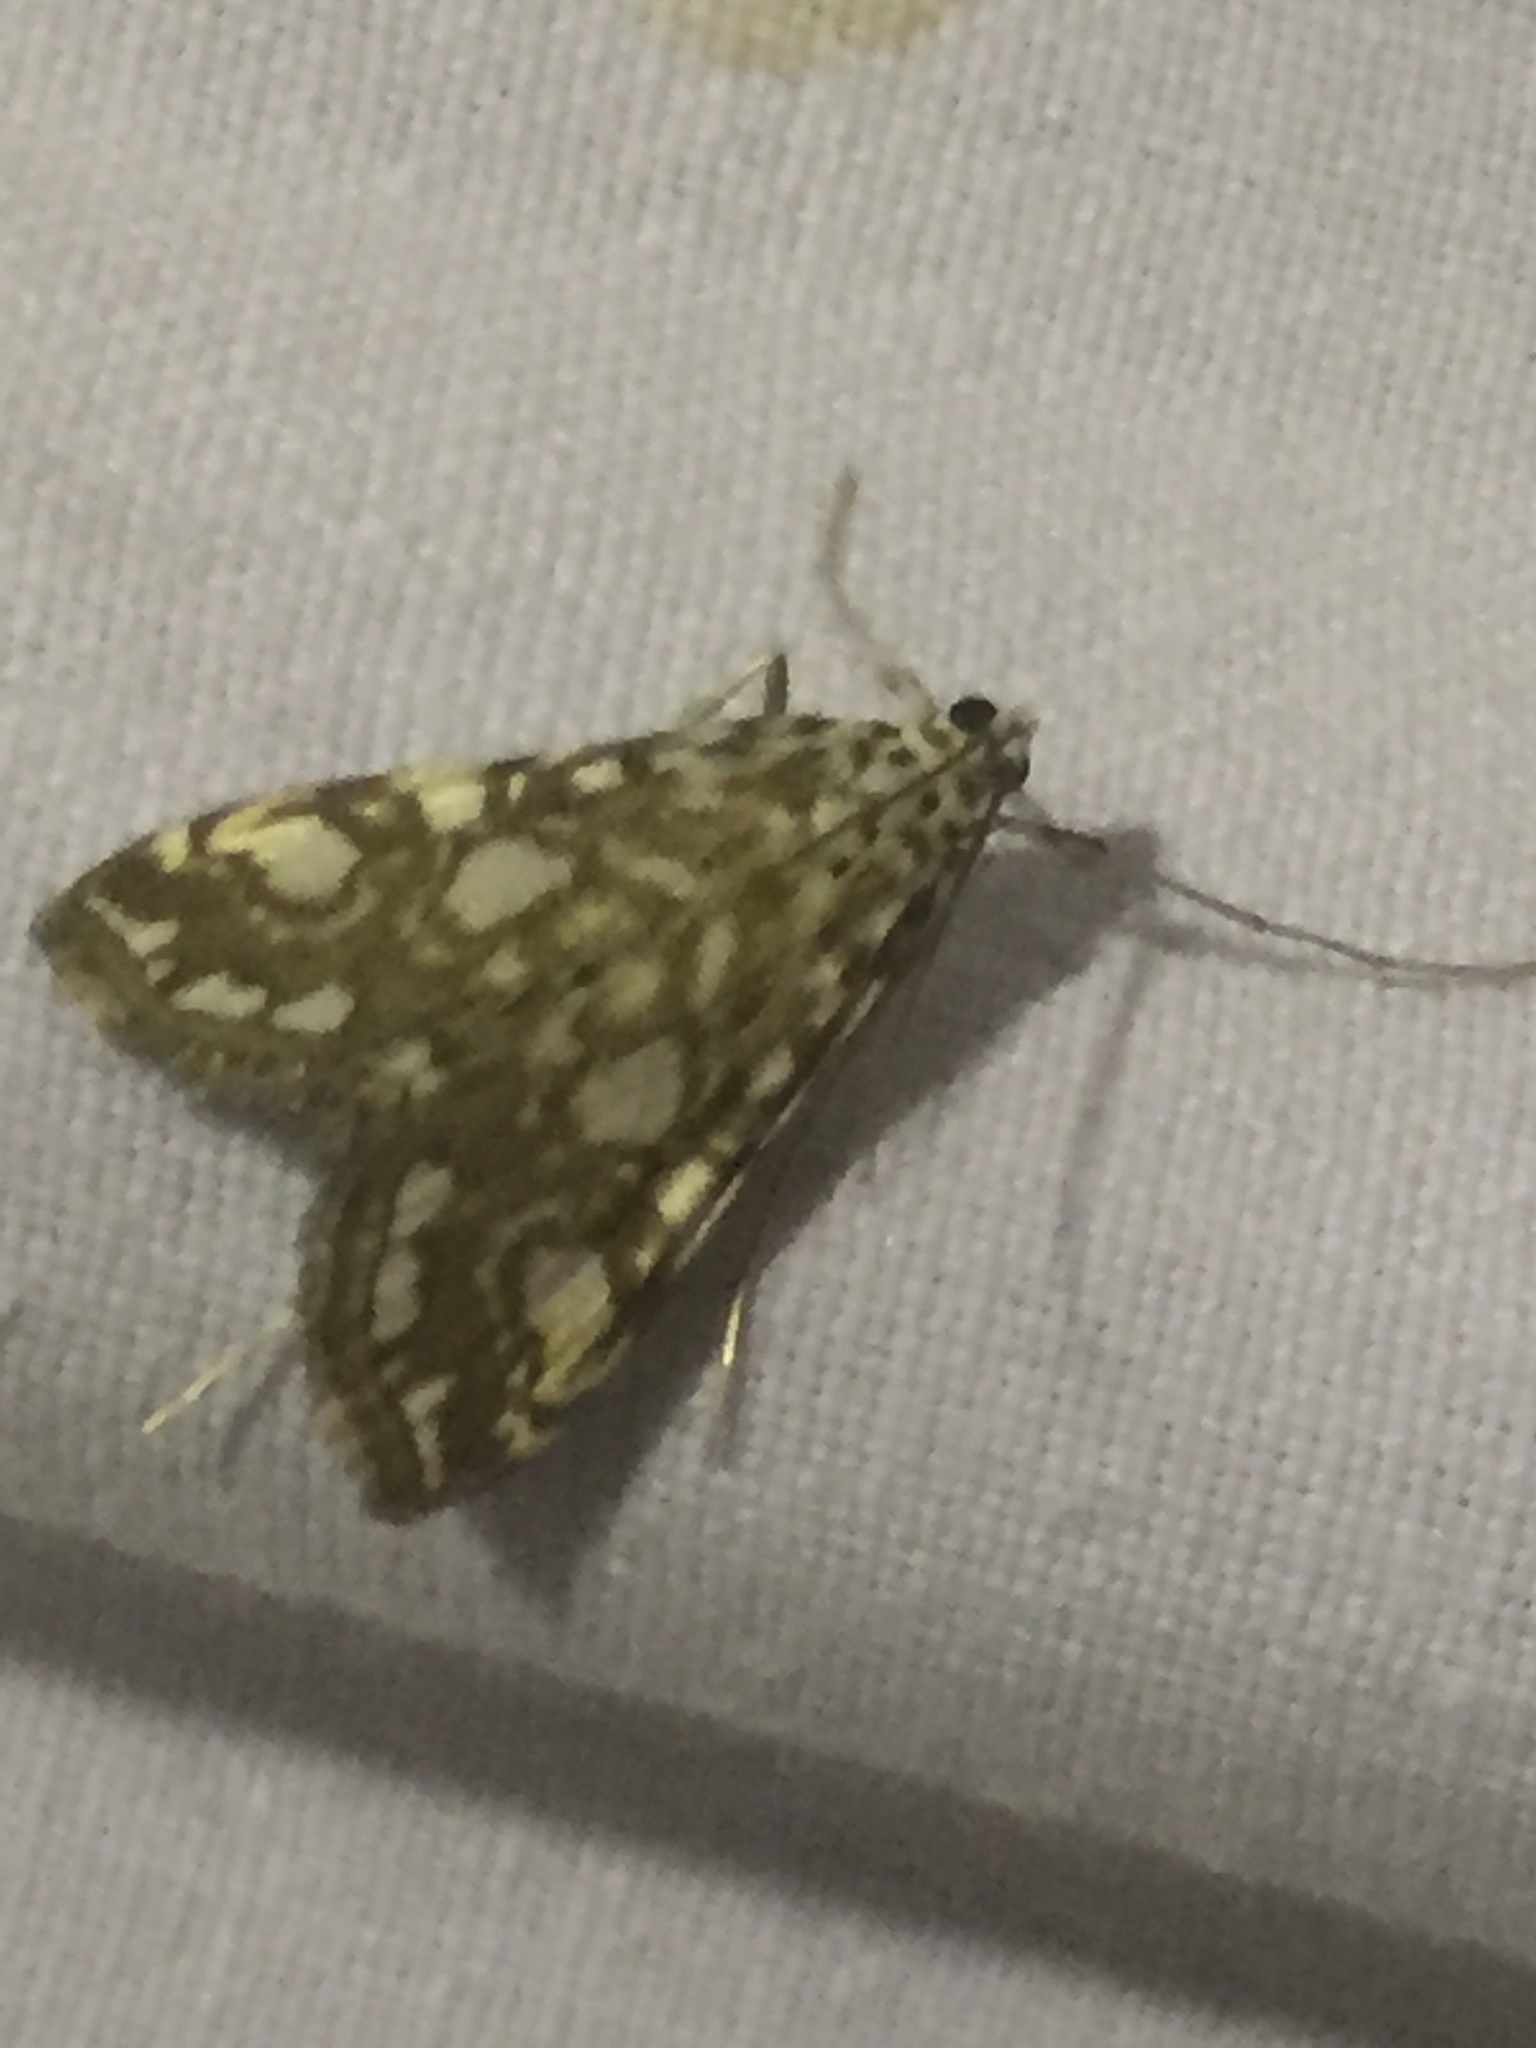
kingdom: Animalia
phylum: Arthropoda
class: Insecta
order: Lepidoptera
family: Crambidae
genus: Elophila
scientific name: Elophila nymphaeata
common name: Brown china-mark
